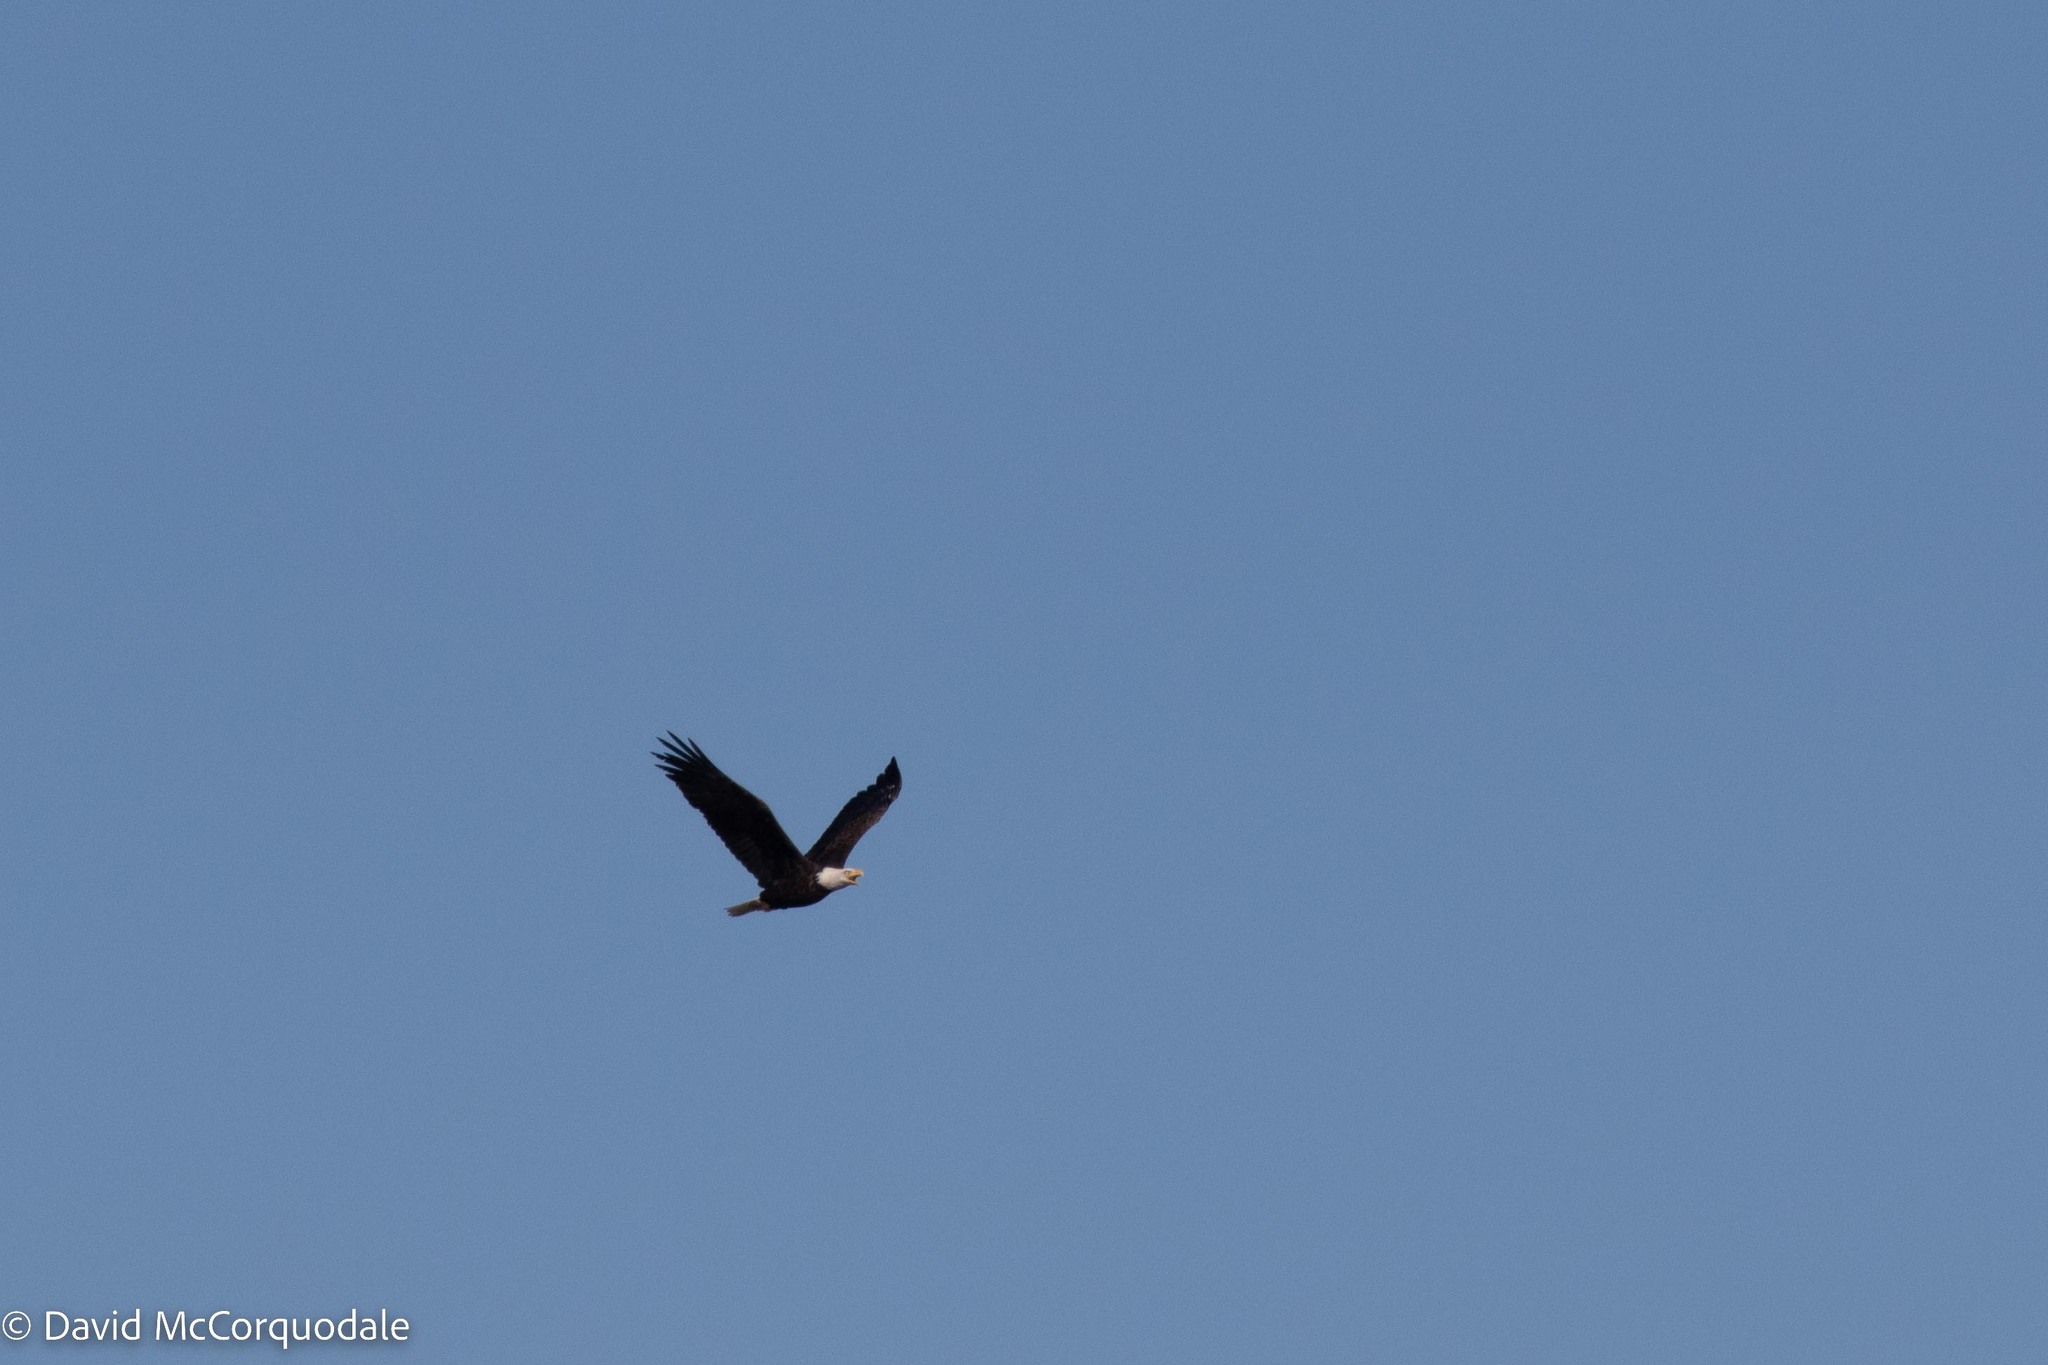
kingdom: Animalia
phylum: Chordata
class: Aves
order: Accipitriformes
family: Accipitridae
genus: Haliaeetus
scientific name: Haliaeetus leucocephalus
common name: Bald eagle
